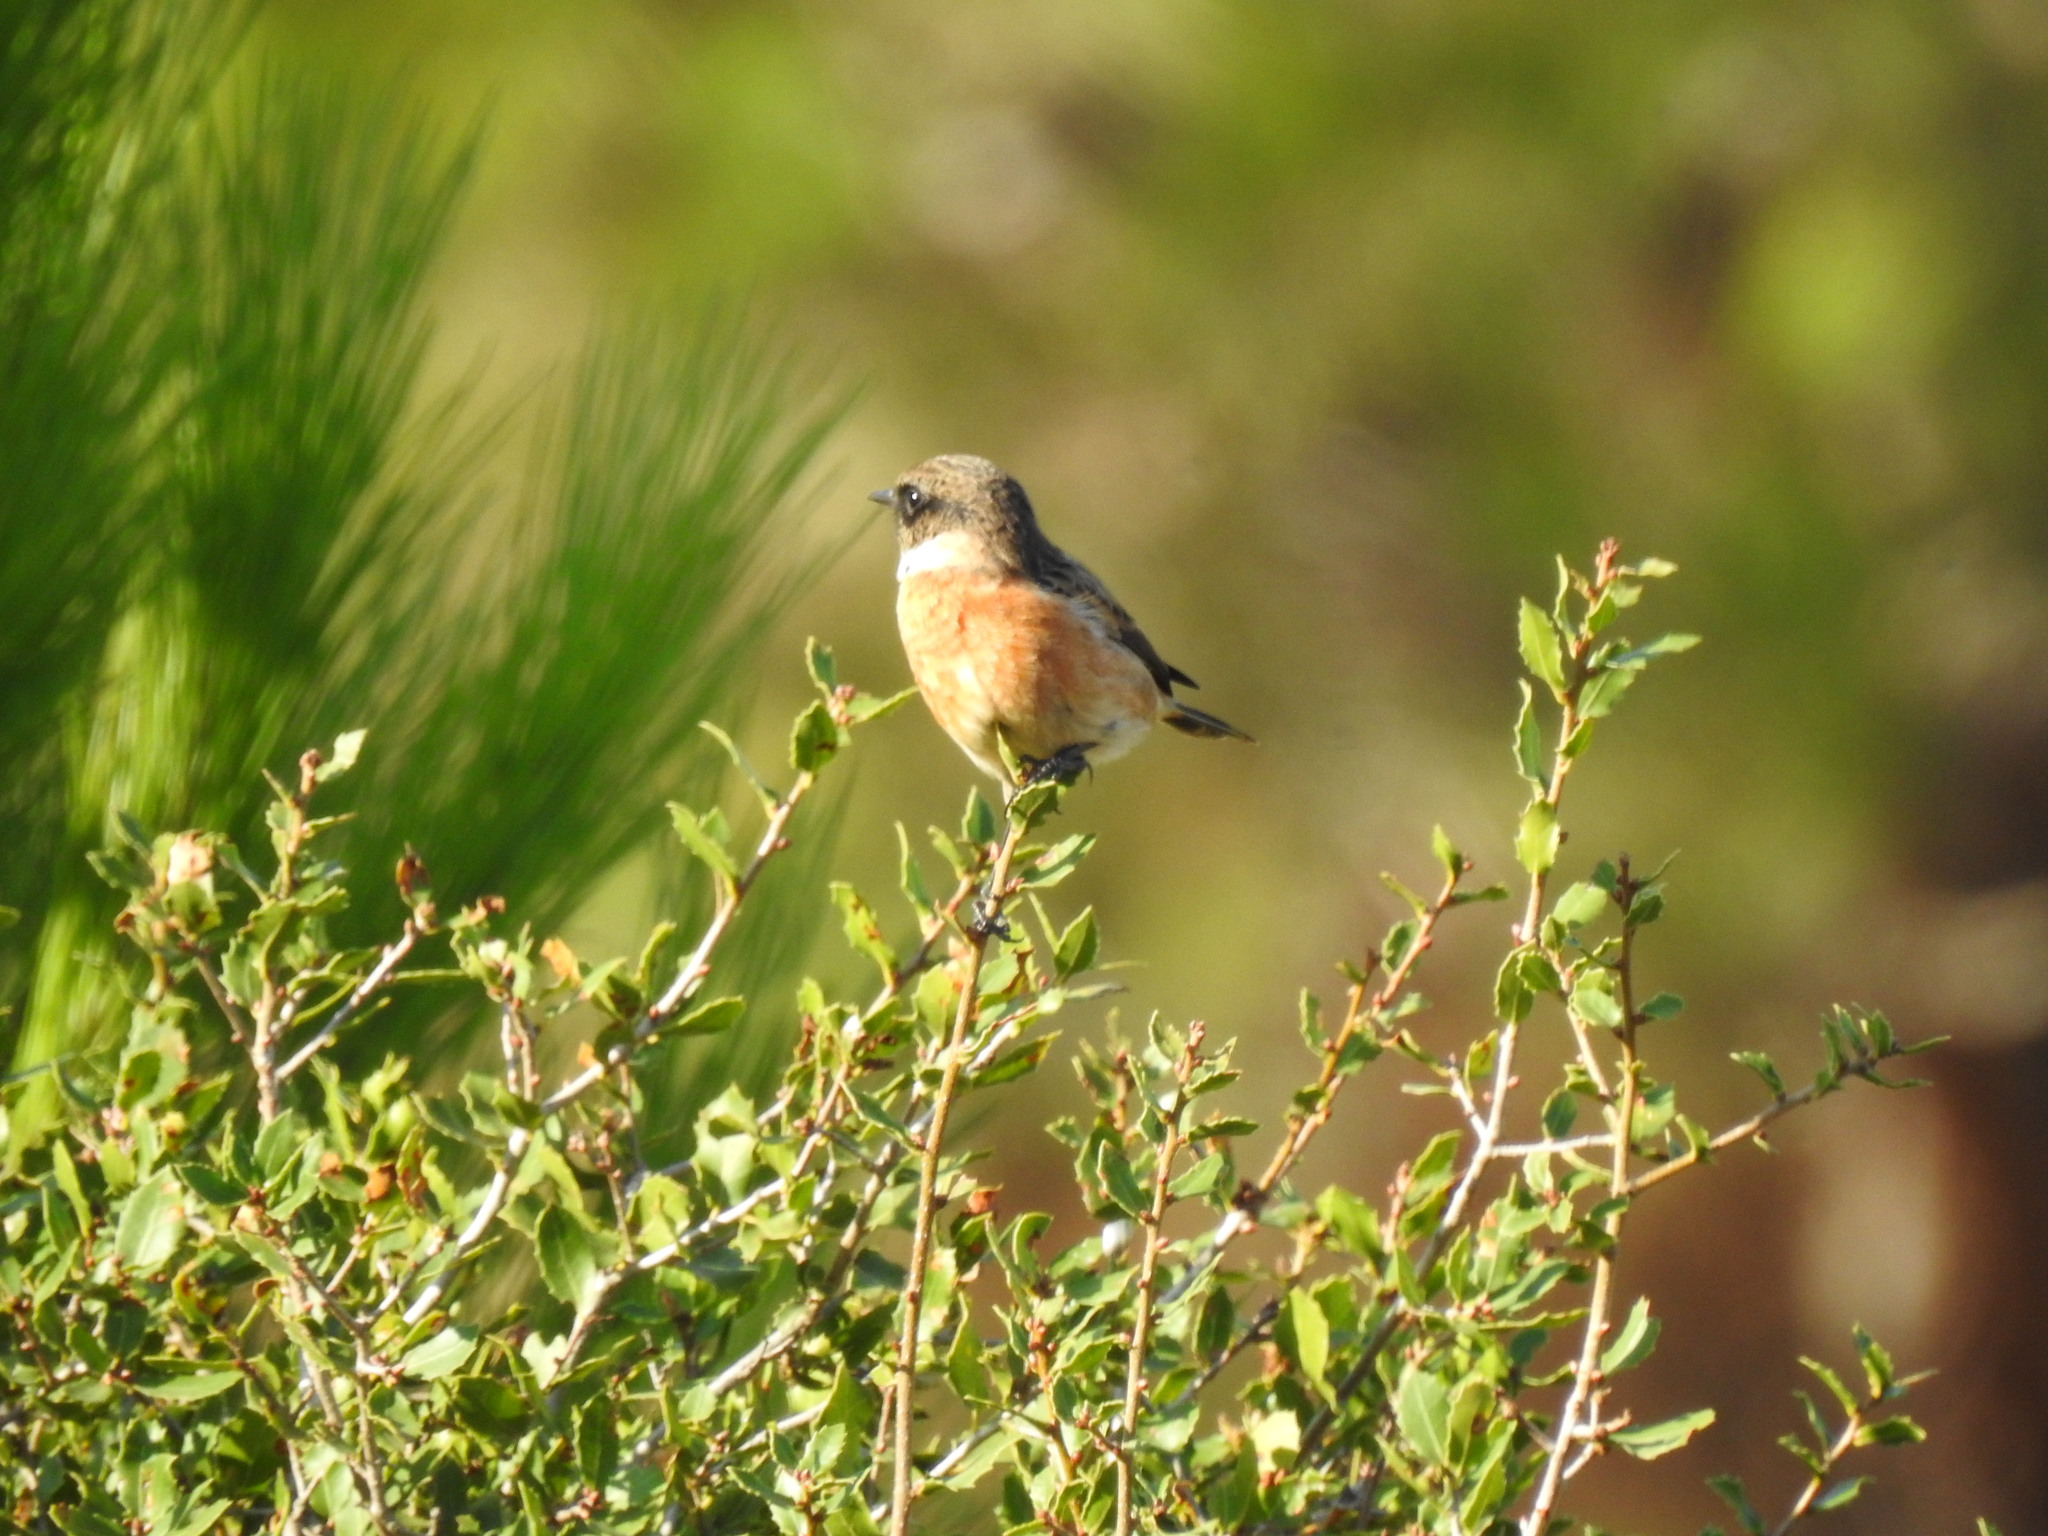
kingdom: Animalia
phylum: Chordata
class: Aves
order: Passeriformes
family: Muscicapidae
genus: Saxicola
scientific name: Saxicola rubicola
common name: European stonechat
